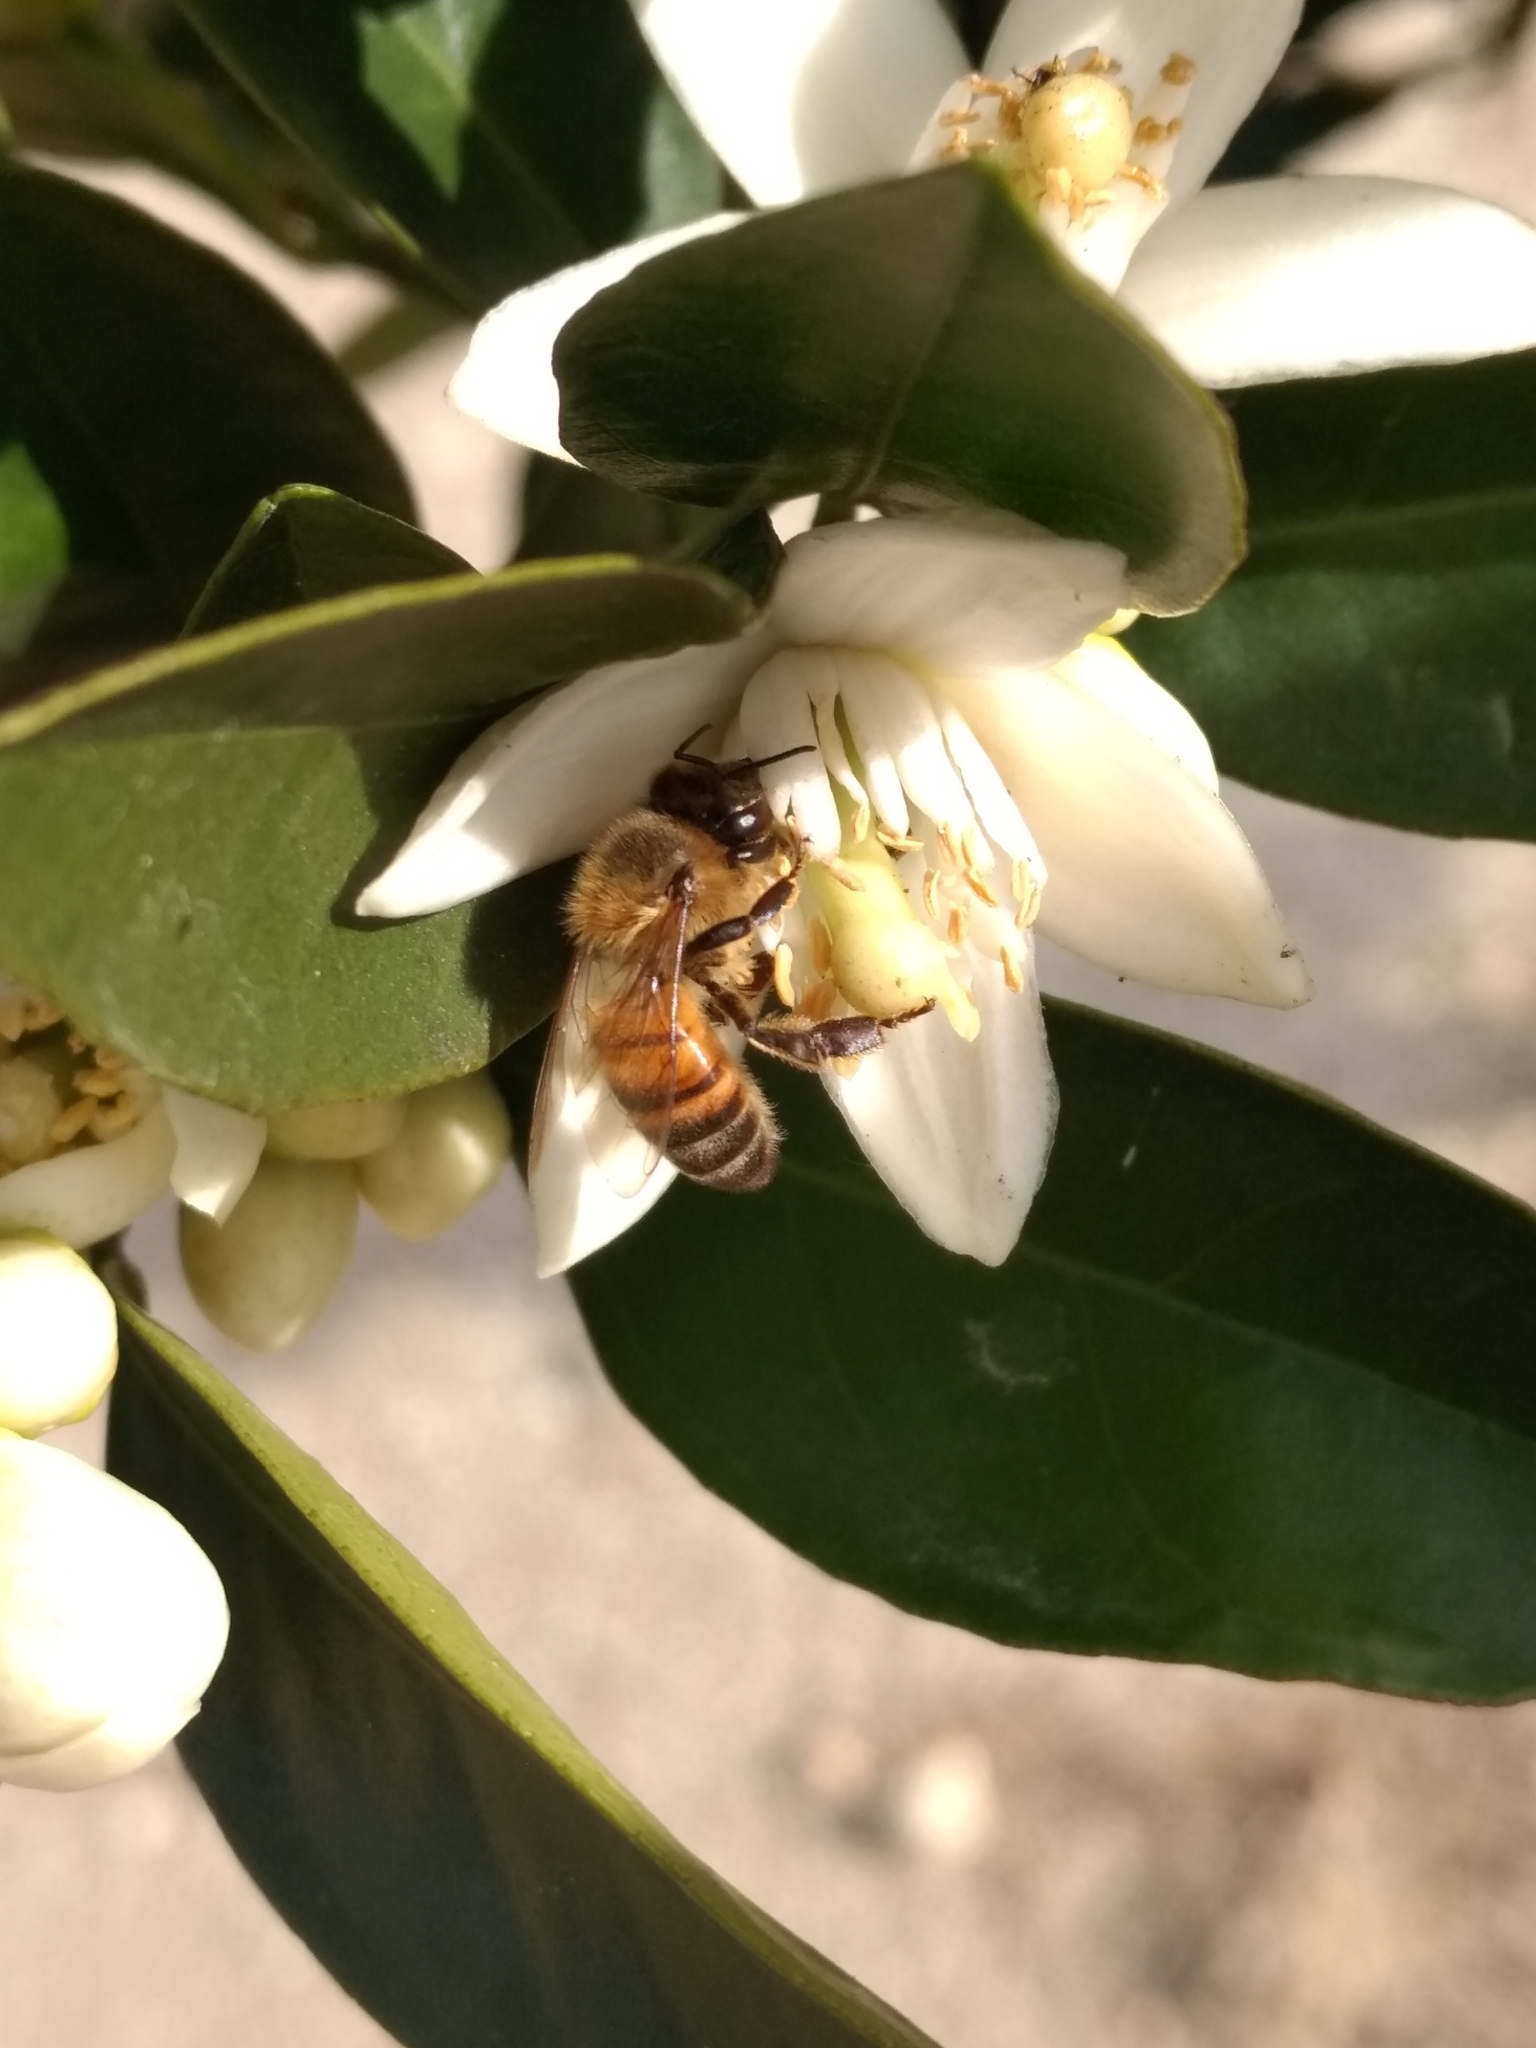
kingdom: Animalia
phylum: Arthropoda
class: Insecta
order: Hymenoptera
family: Apidae
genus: Apis
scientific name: Apis mellifera
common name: Honey bee
